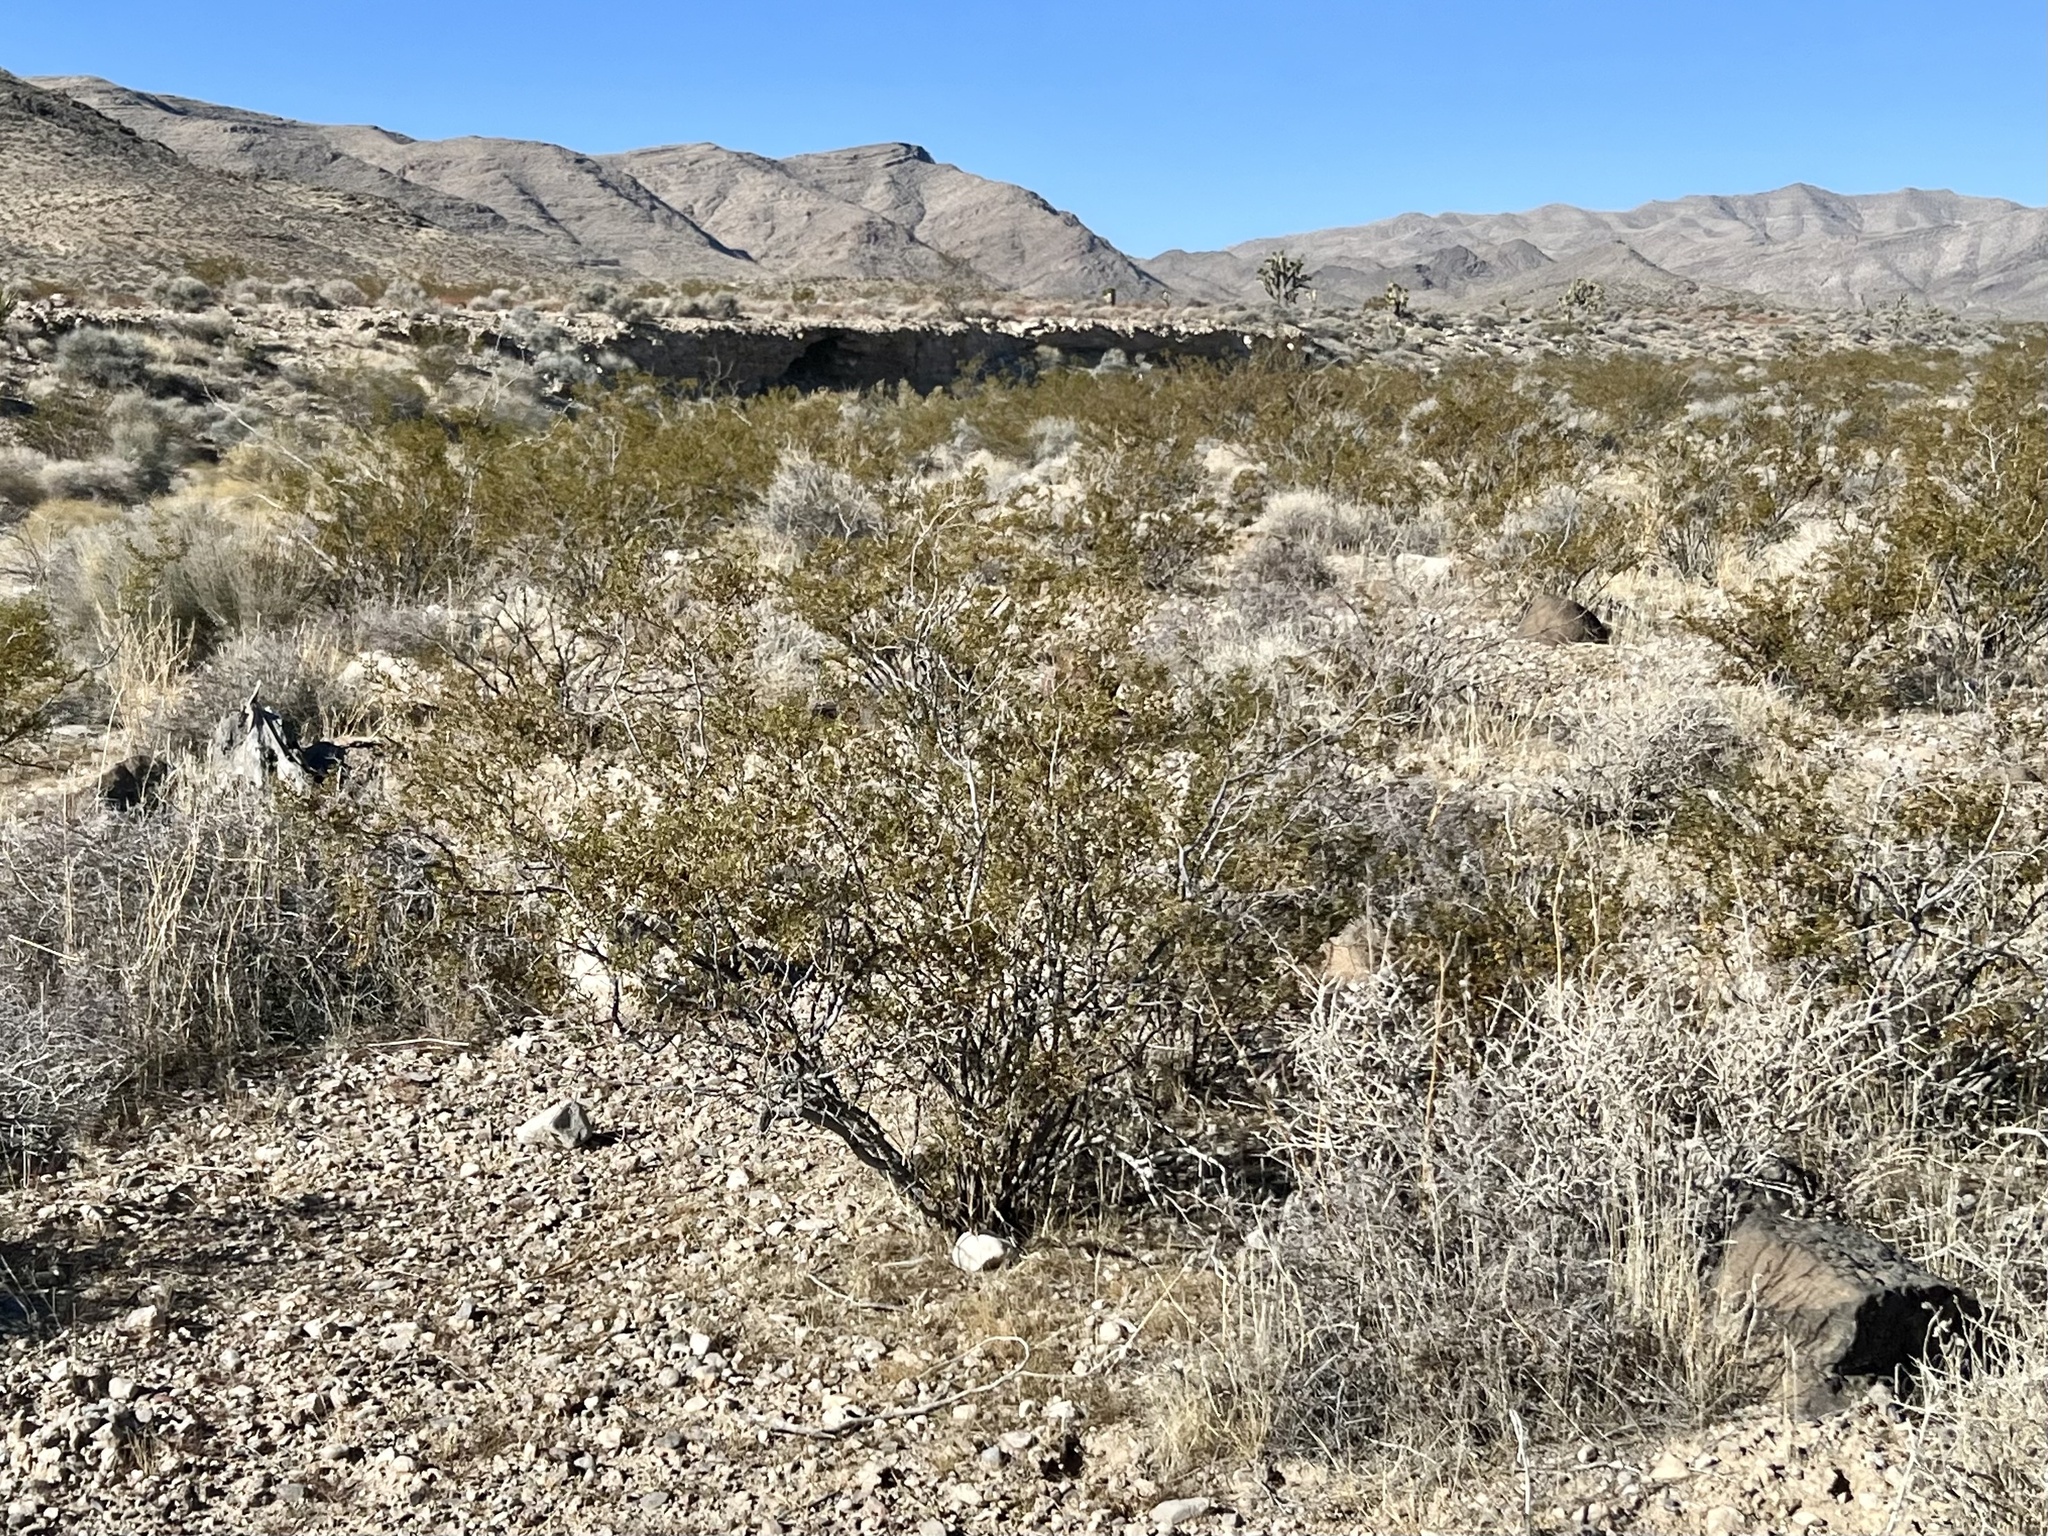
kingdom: Plantae
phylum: Tracheophyta
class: Magnoliopsida
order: Zygophyllales
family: Zygophyllaceae
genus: Larrea
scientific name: Larrea tridentata
